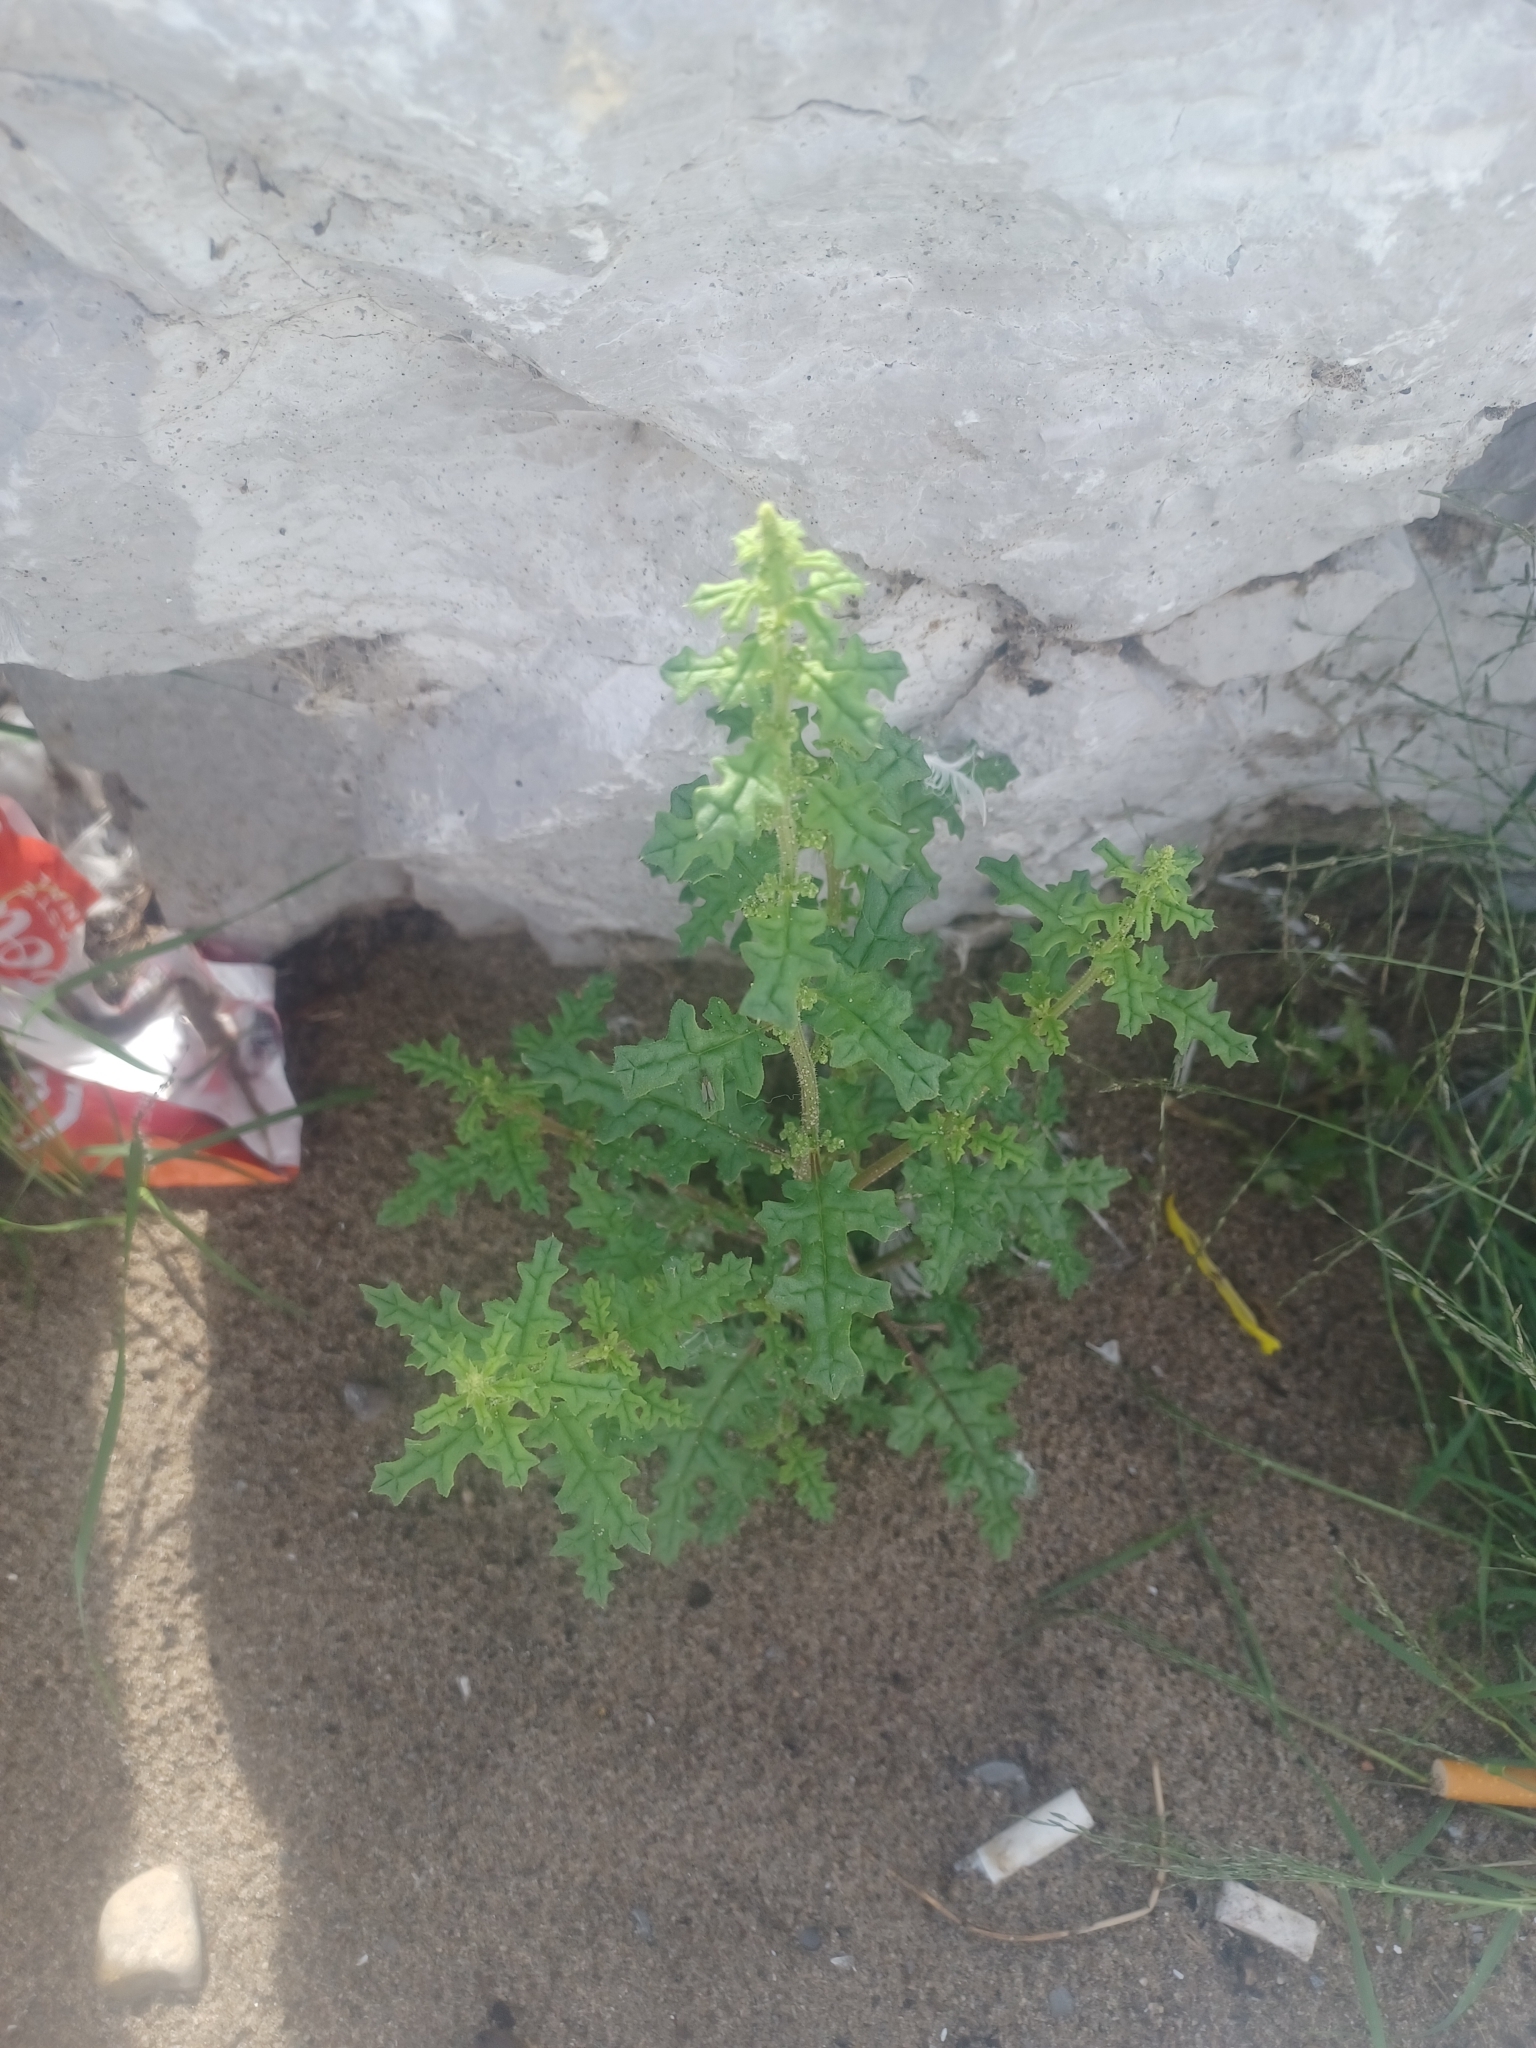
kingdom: Plantae
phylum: Tracheophyta
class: Magnoliopsida
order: Caryophyllales
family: Amaranthaceae
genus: Dysphania
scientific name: Dysphania botrys
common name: Feather-geranium
